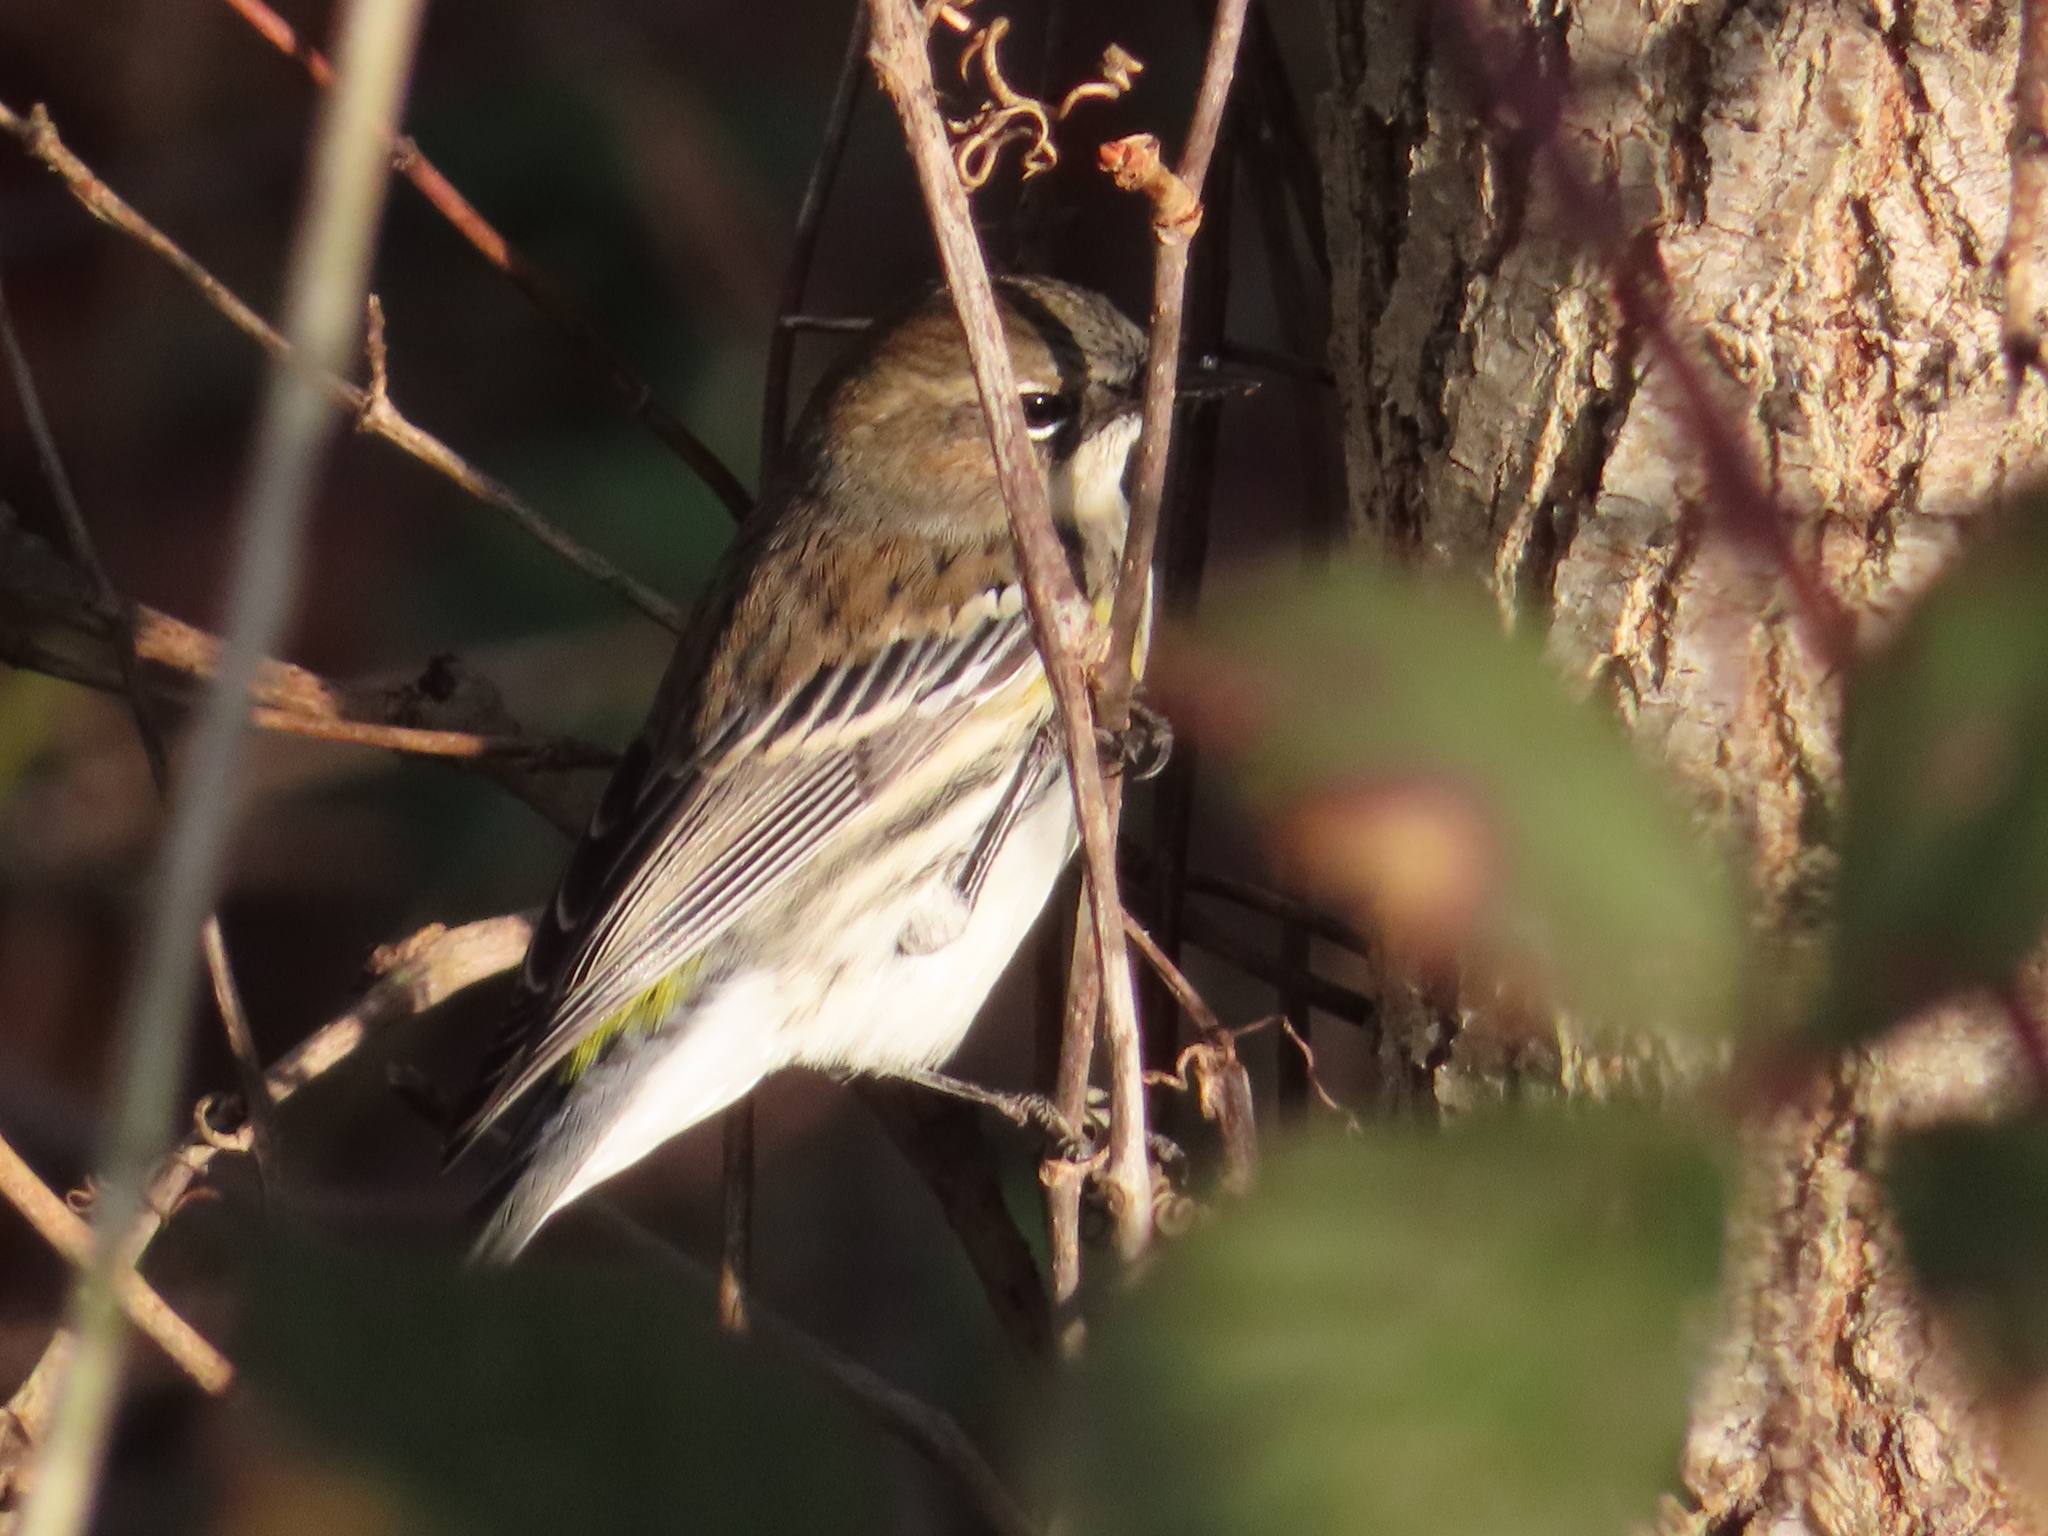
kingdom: Animalia
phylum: Chordata
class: Aves
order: Passeriformes
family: Parulidae
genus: Setophaga
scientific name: Setophaga coronata
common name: Myrtle warbler
